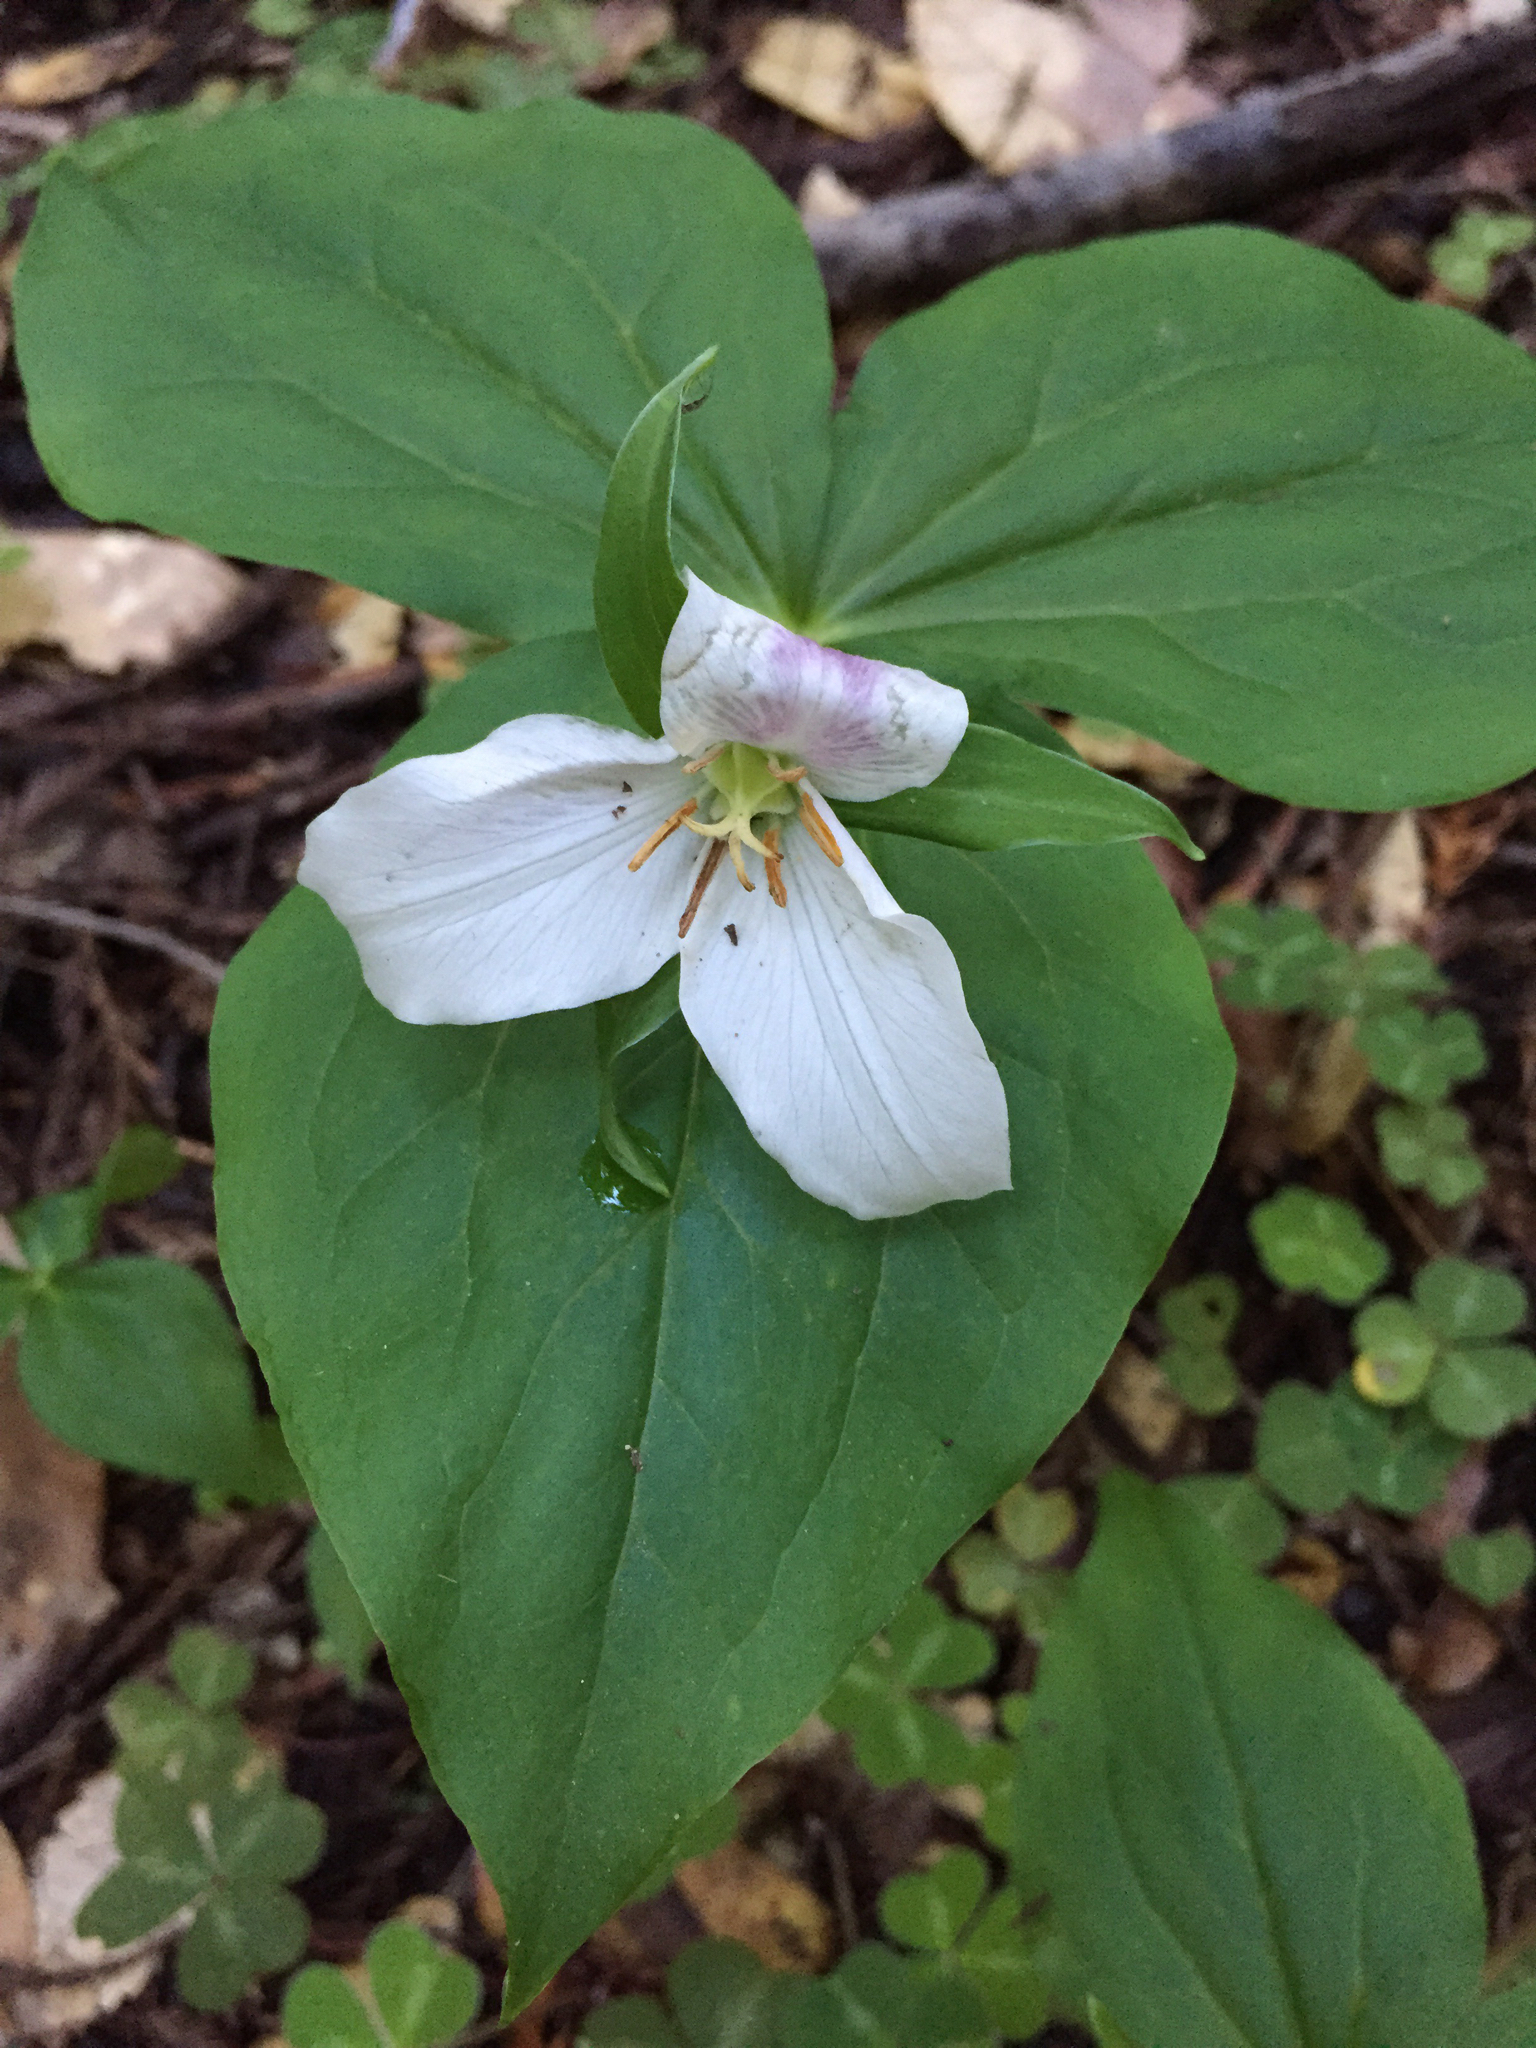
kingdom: Plantae
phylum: Tracheophyta
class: Liliopsida
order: Liliales
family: Melanthiaceae
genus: Trillium
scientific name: Trillium ovatum
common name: Pacific trillium
